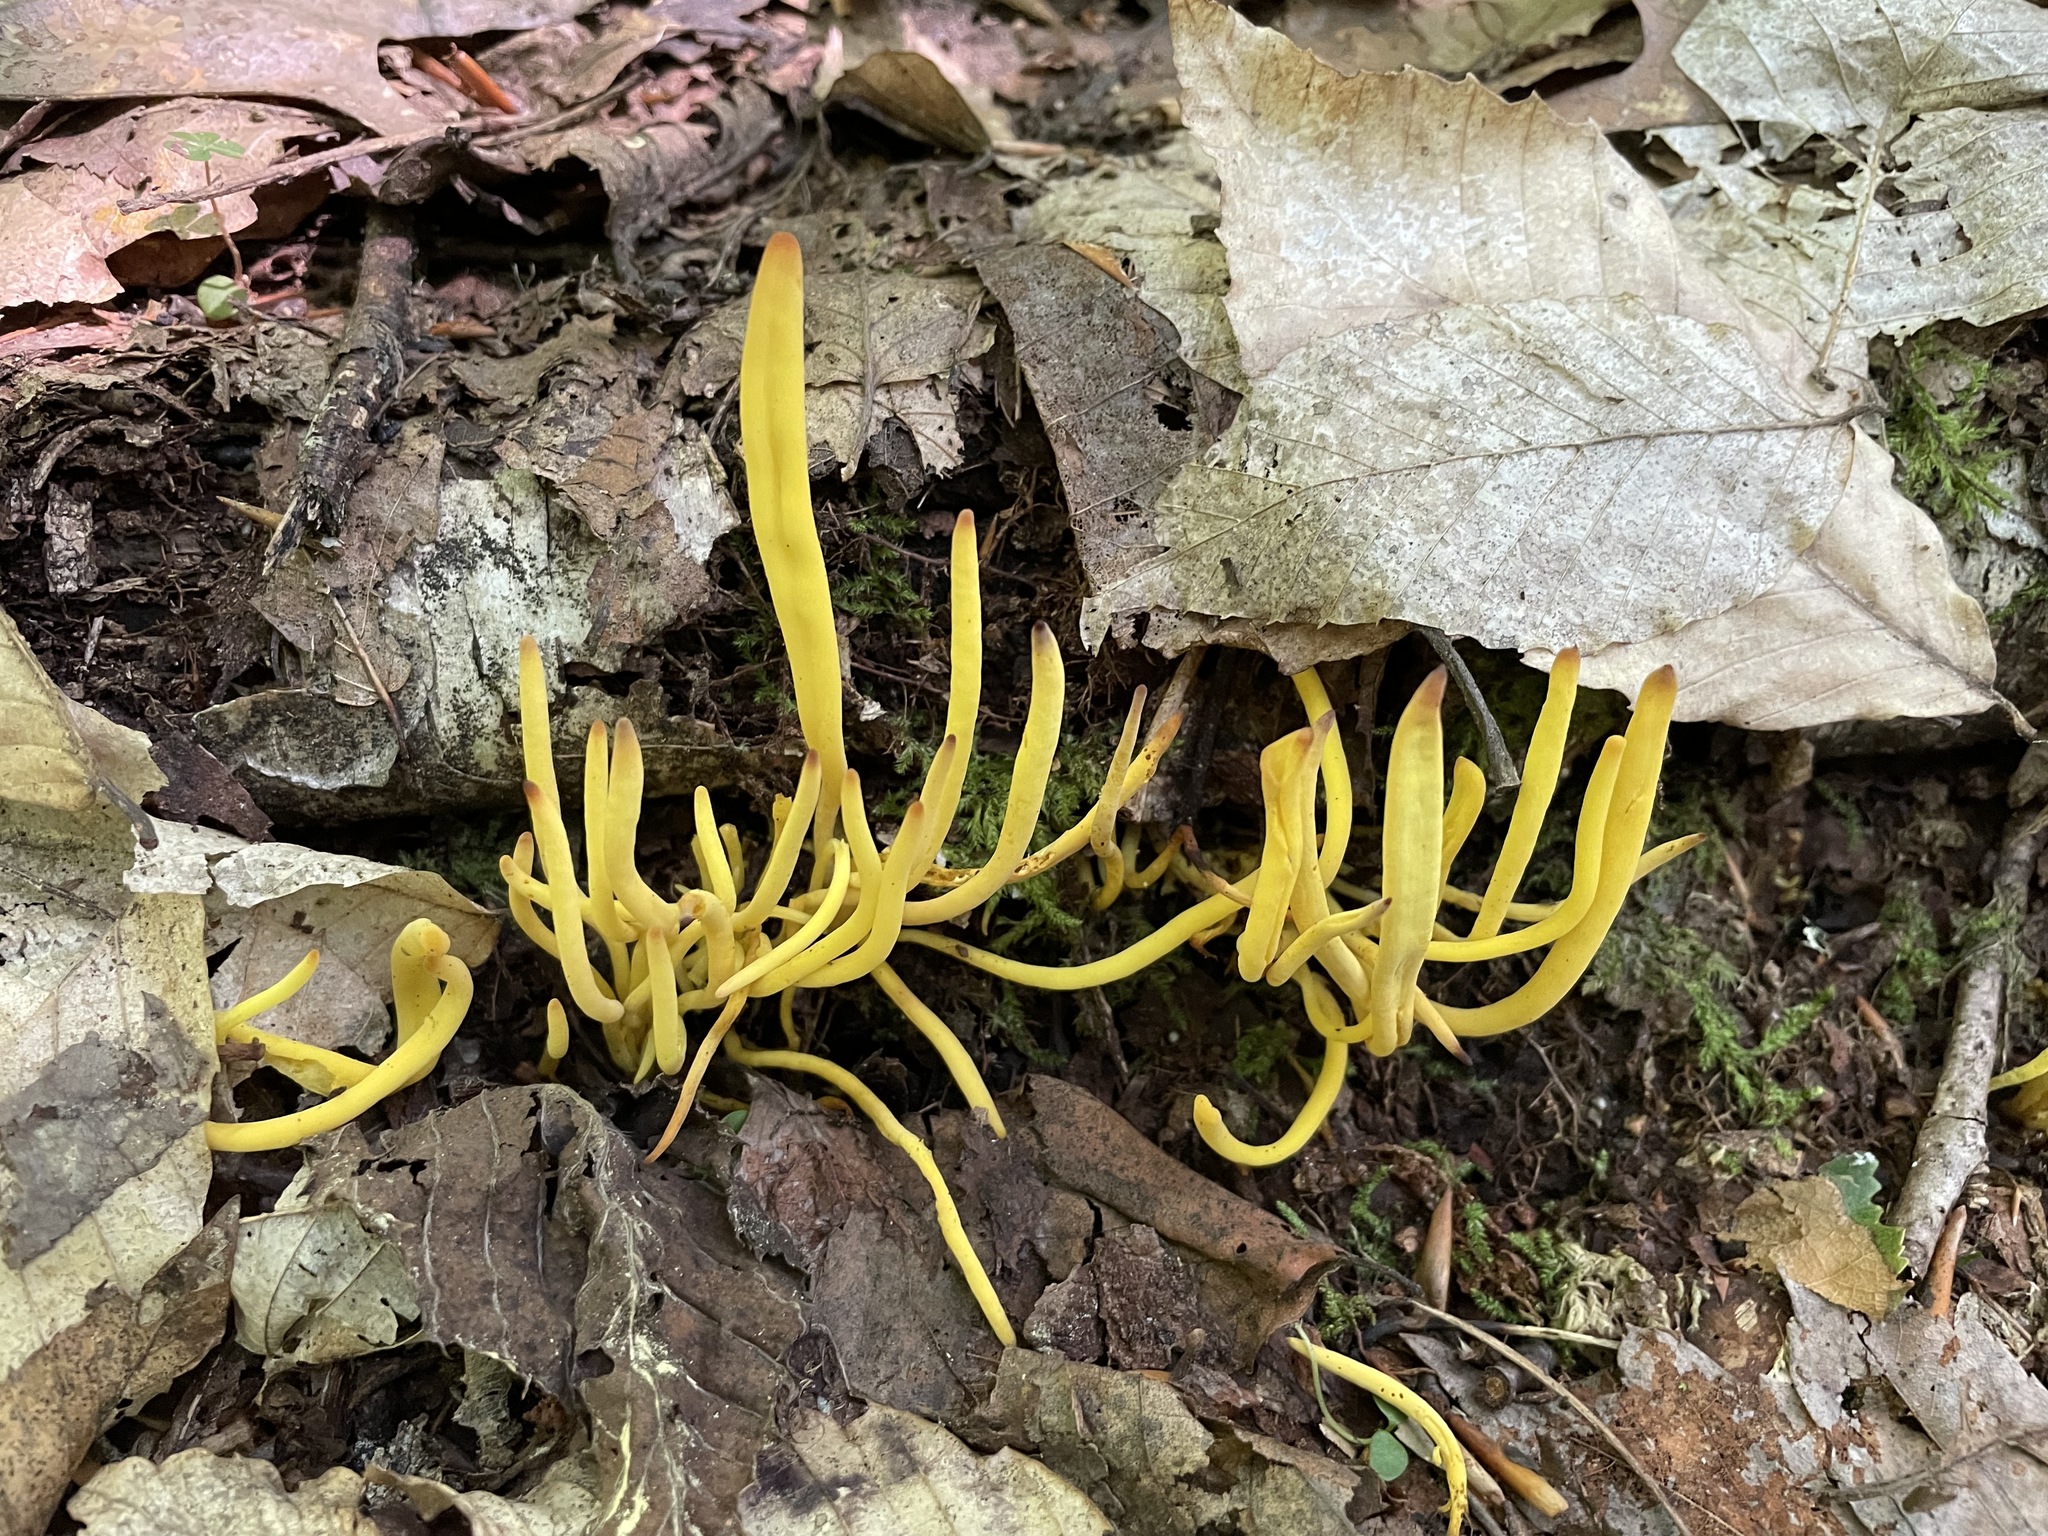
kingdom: Fungi
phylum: Basidiomycota
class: Agaricomycetes
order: Agaricales
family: Clavariaceae
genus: Clavulinopsis
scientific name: Clavulinopsis fusiformis
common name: Golden spindles
